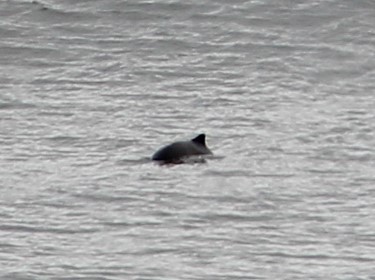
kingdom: Animalia
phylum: Chordata
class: Mammalia
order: Cetacea
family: Phocoenidae
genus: Phocoena
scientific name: Phocoena phocoena
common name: Harbor porpoise
